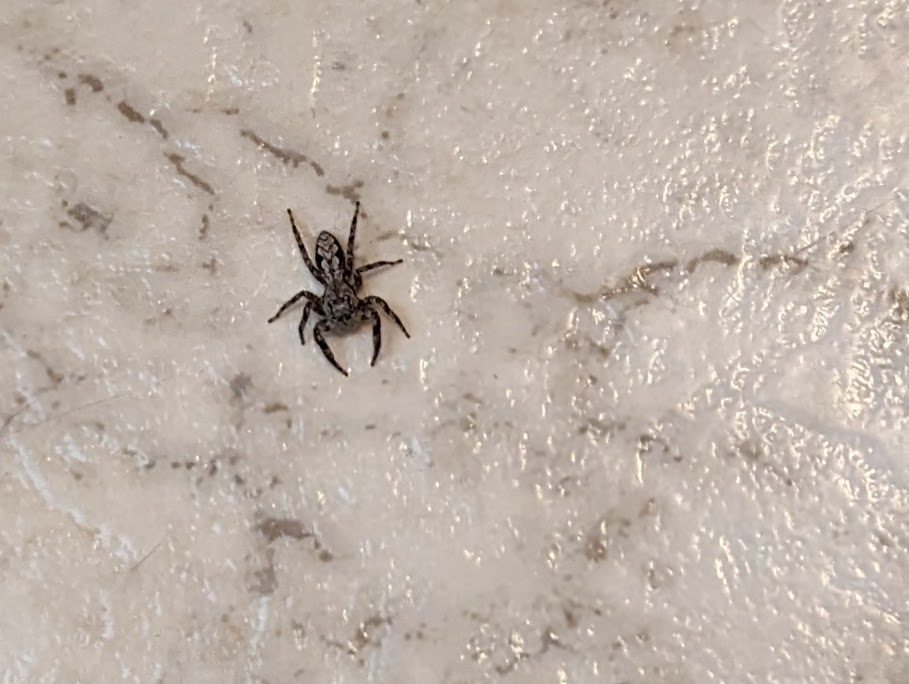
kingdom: Animalia
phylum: Arthropoda
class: Arachnida
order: Araneae
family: Salticidae
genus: Platycryptus
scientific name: Platycryptus undatus
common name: Tan jumping spider
